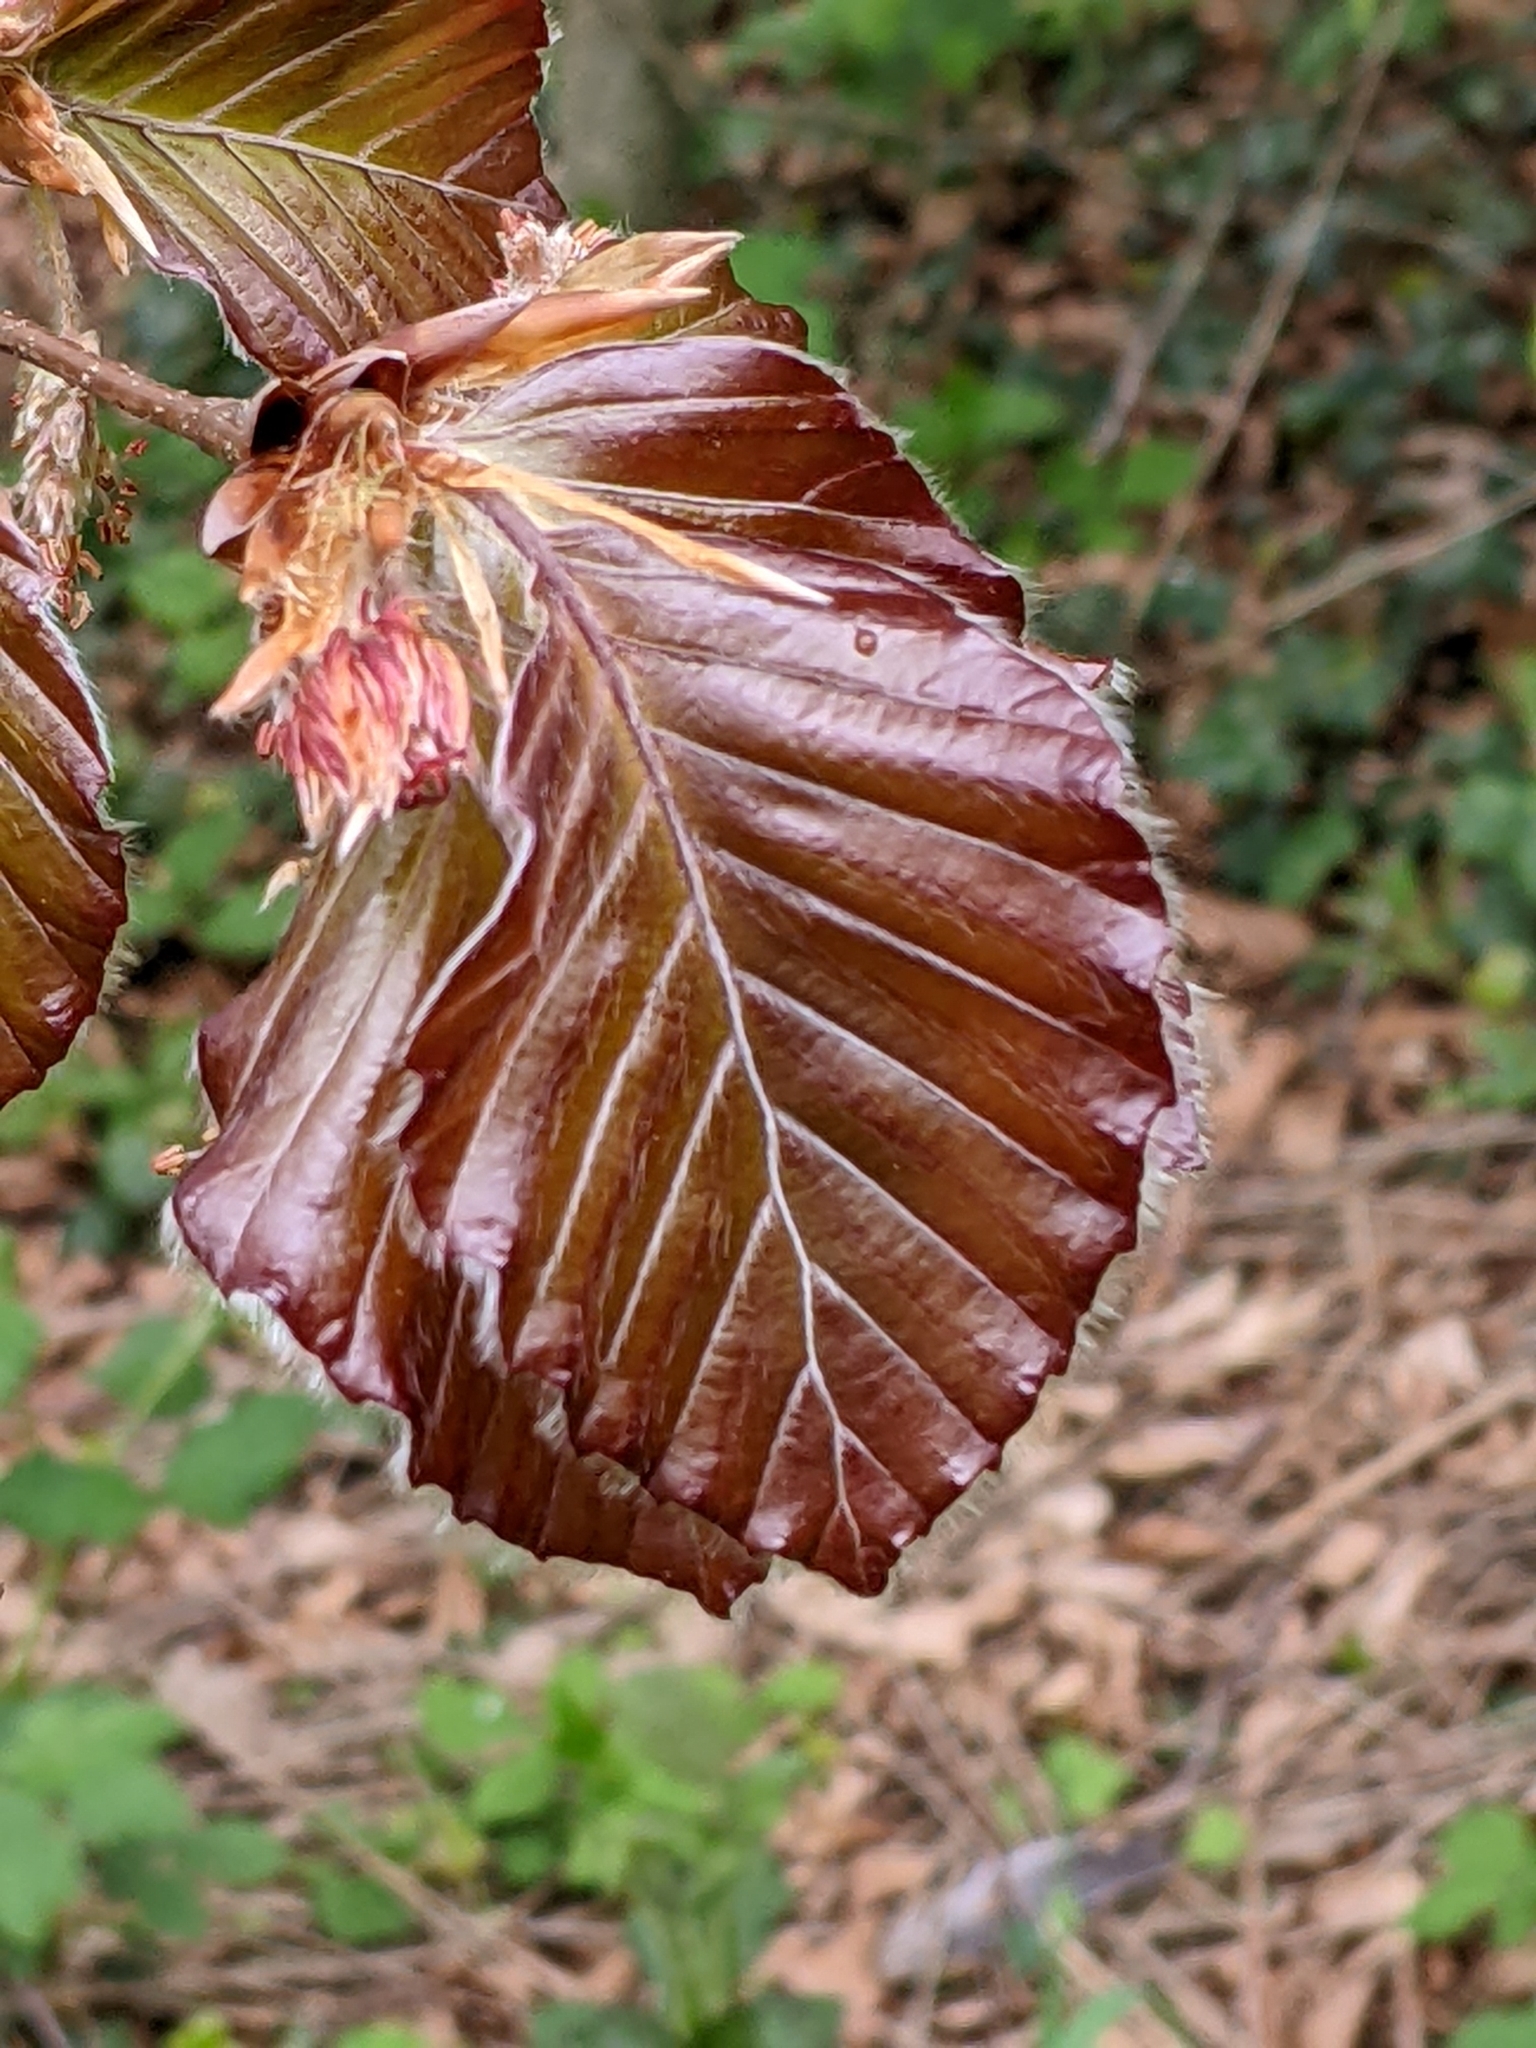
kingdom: Plantae
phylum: Tracheophyta
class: Magnoliopsida
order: Fagales
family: Fagaceae
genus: Fagus
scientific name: Fagus sylvatica
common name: Beech
